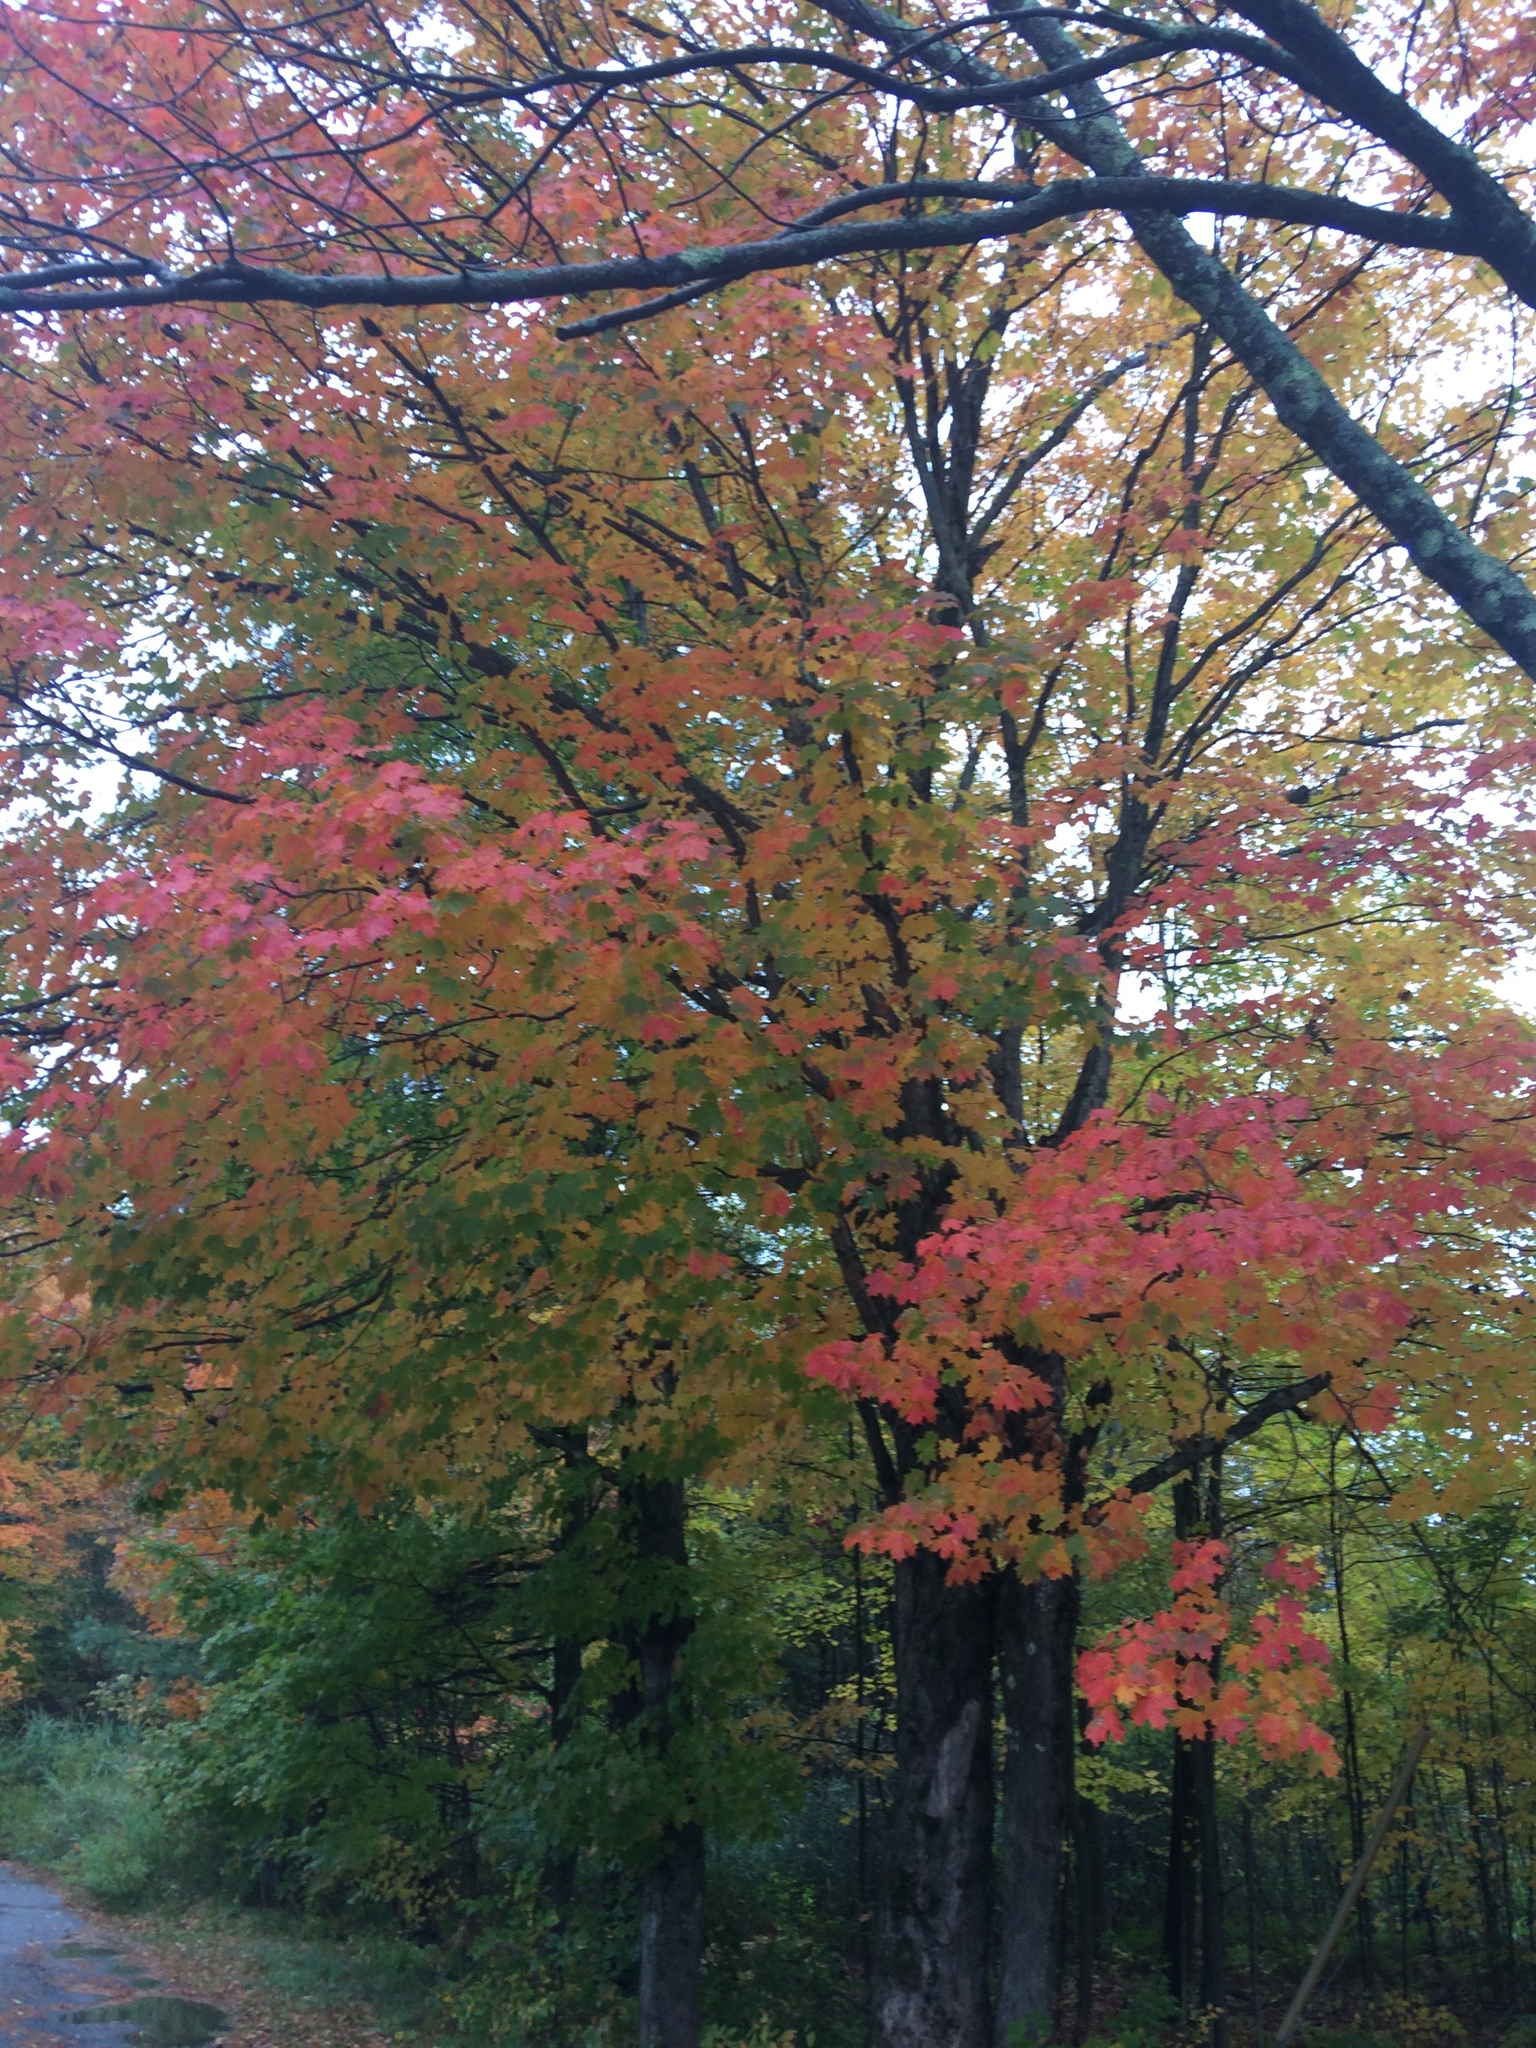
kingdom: Plantae
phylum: Tracheophyta
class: Magnoliopsida
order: Sapindales
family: Sapindaceae
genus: Acer
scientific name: Acer saccharum
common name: Sugar maple
